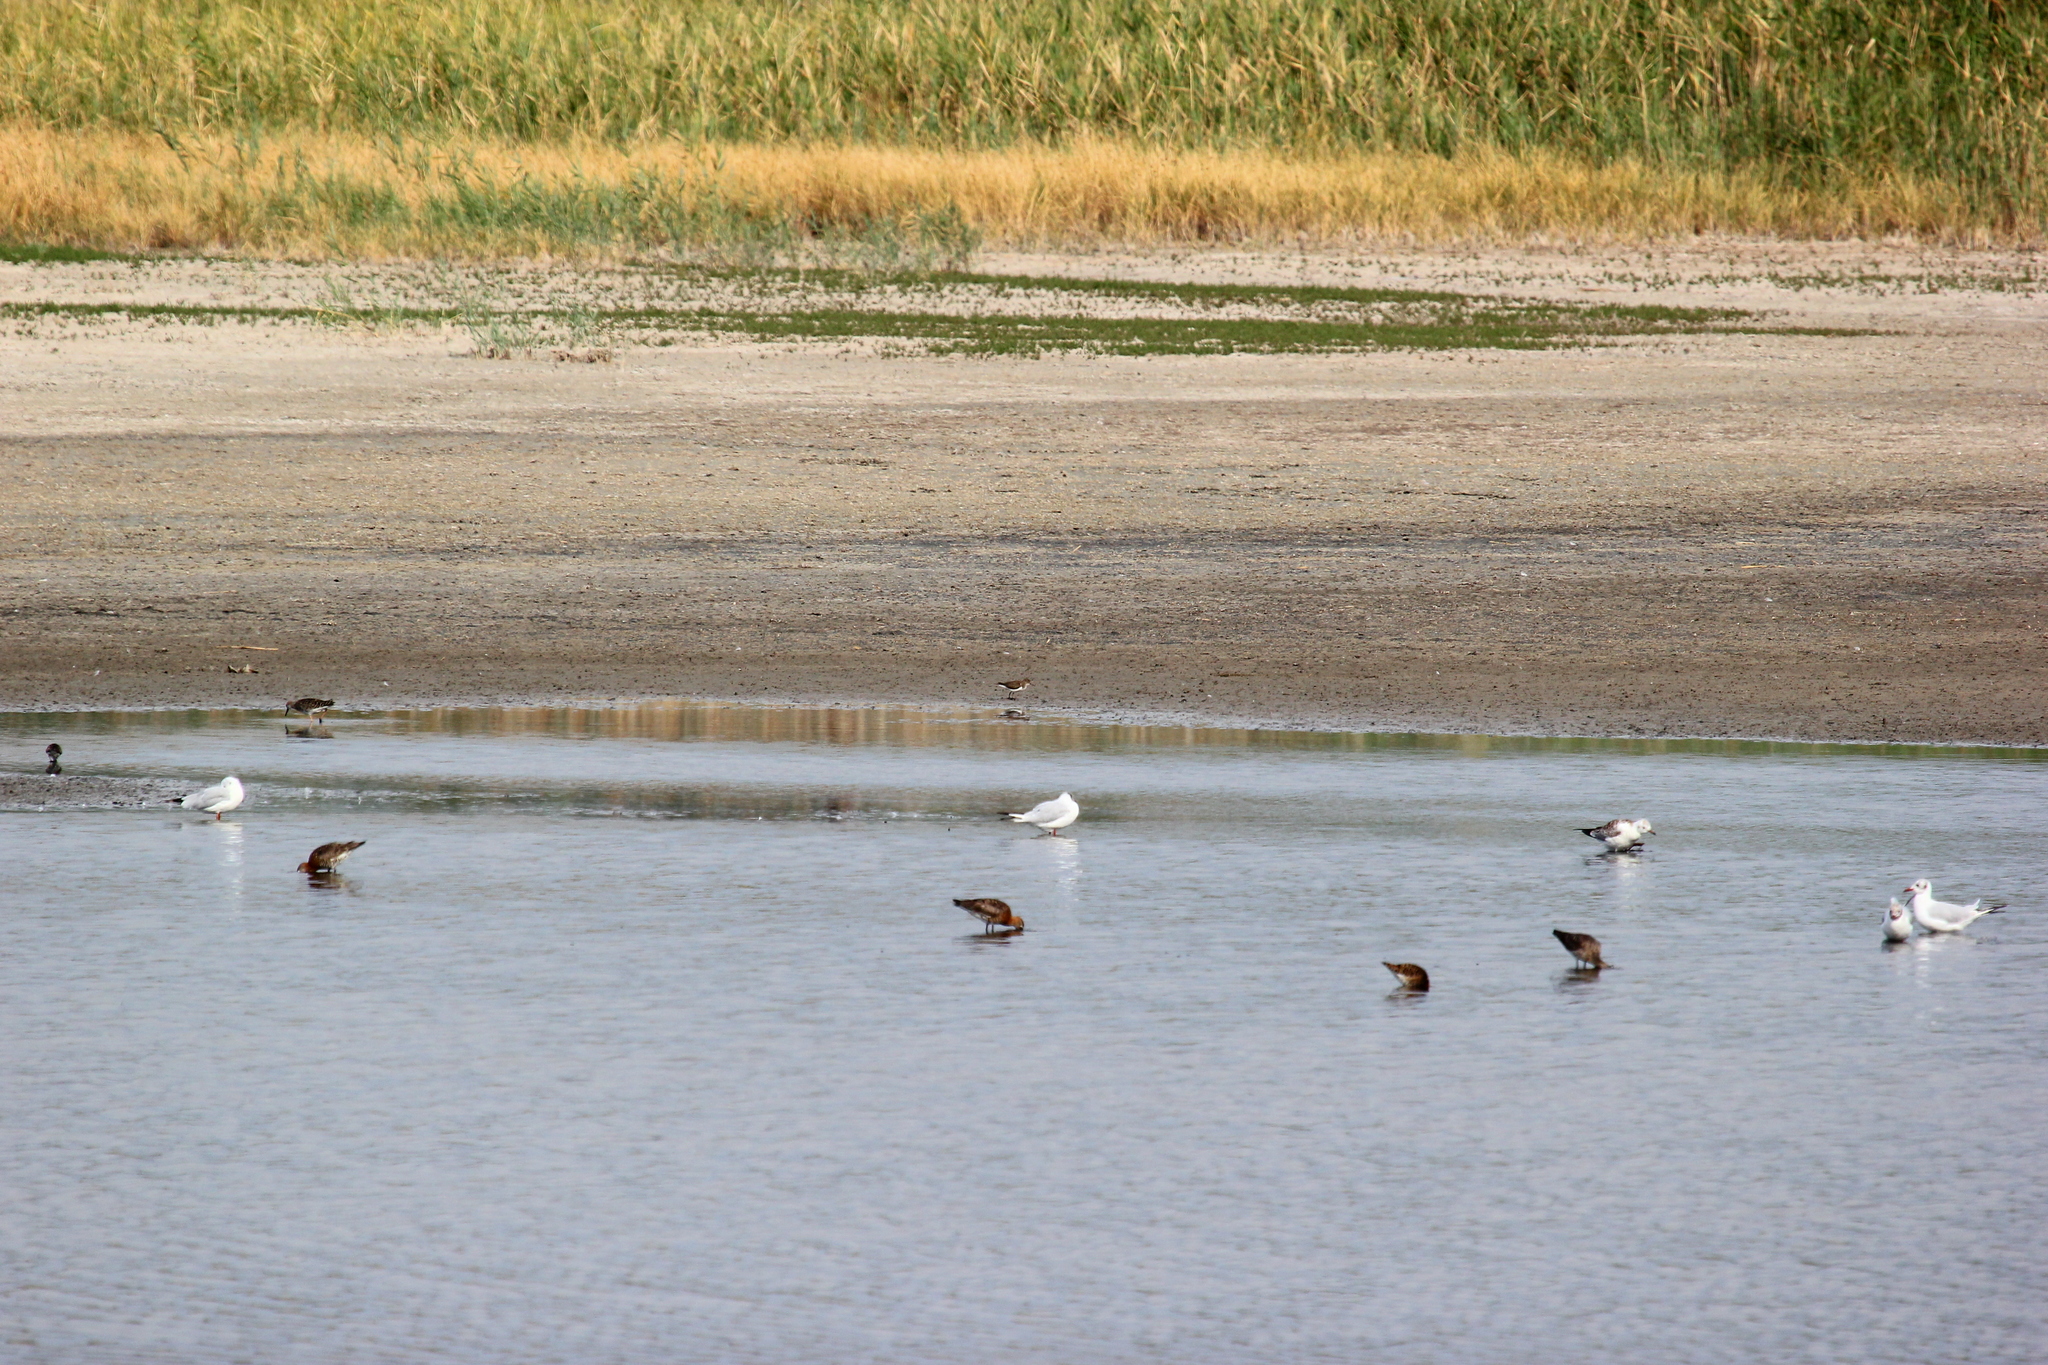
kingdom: Animalia
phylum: Chordata
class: Aves
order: Charadriiformes
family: Scolopacidae
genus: Limosa
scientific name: Limosa limosa
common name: Black-tailed godwit
